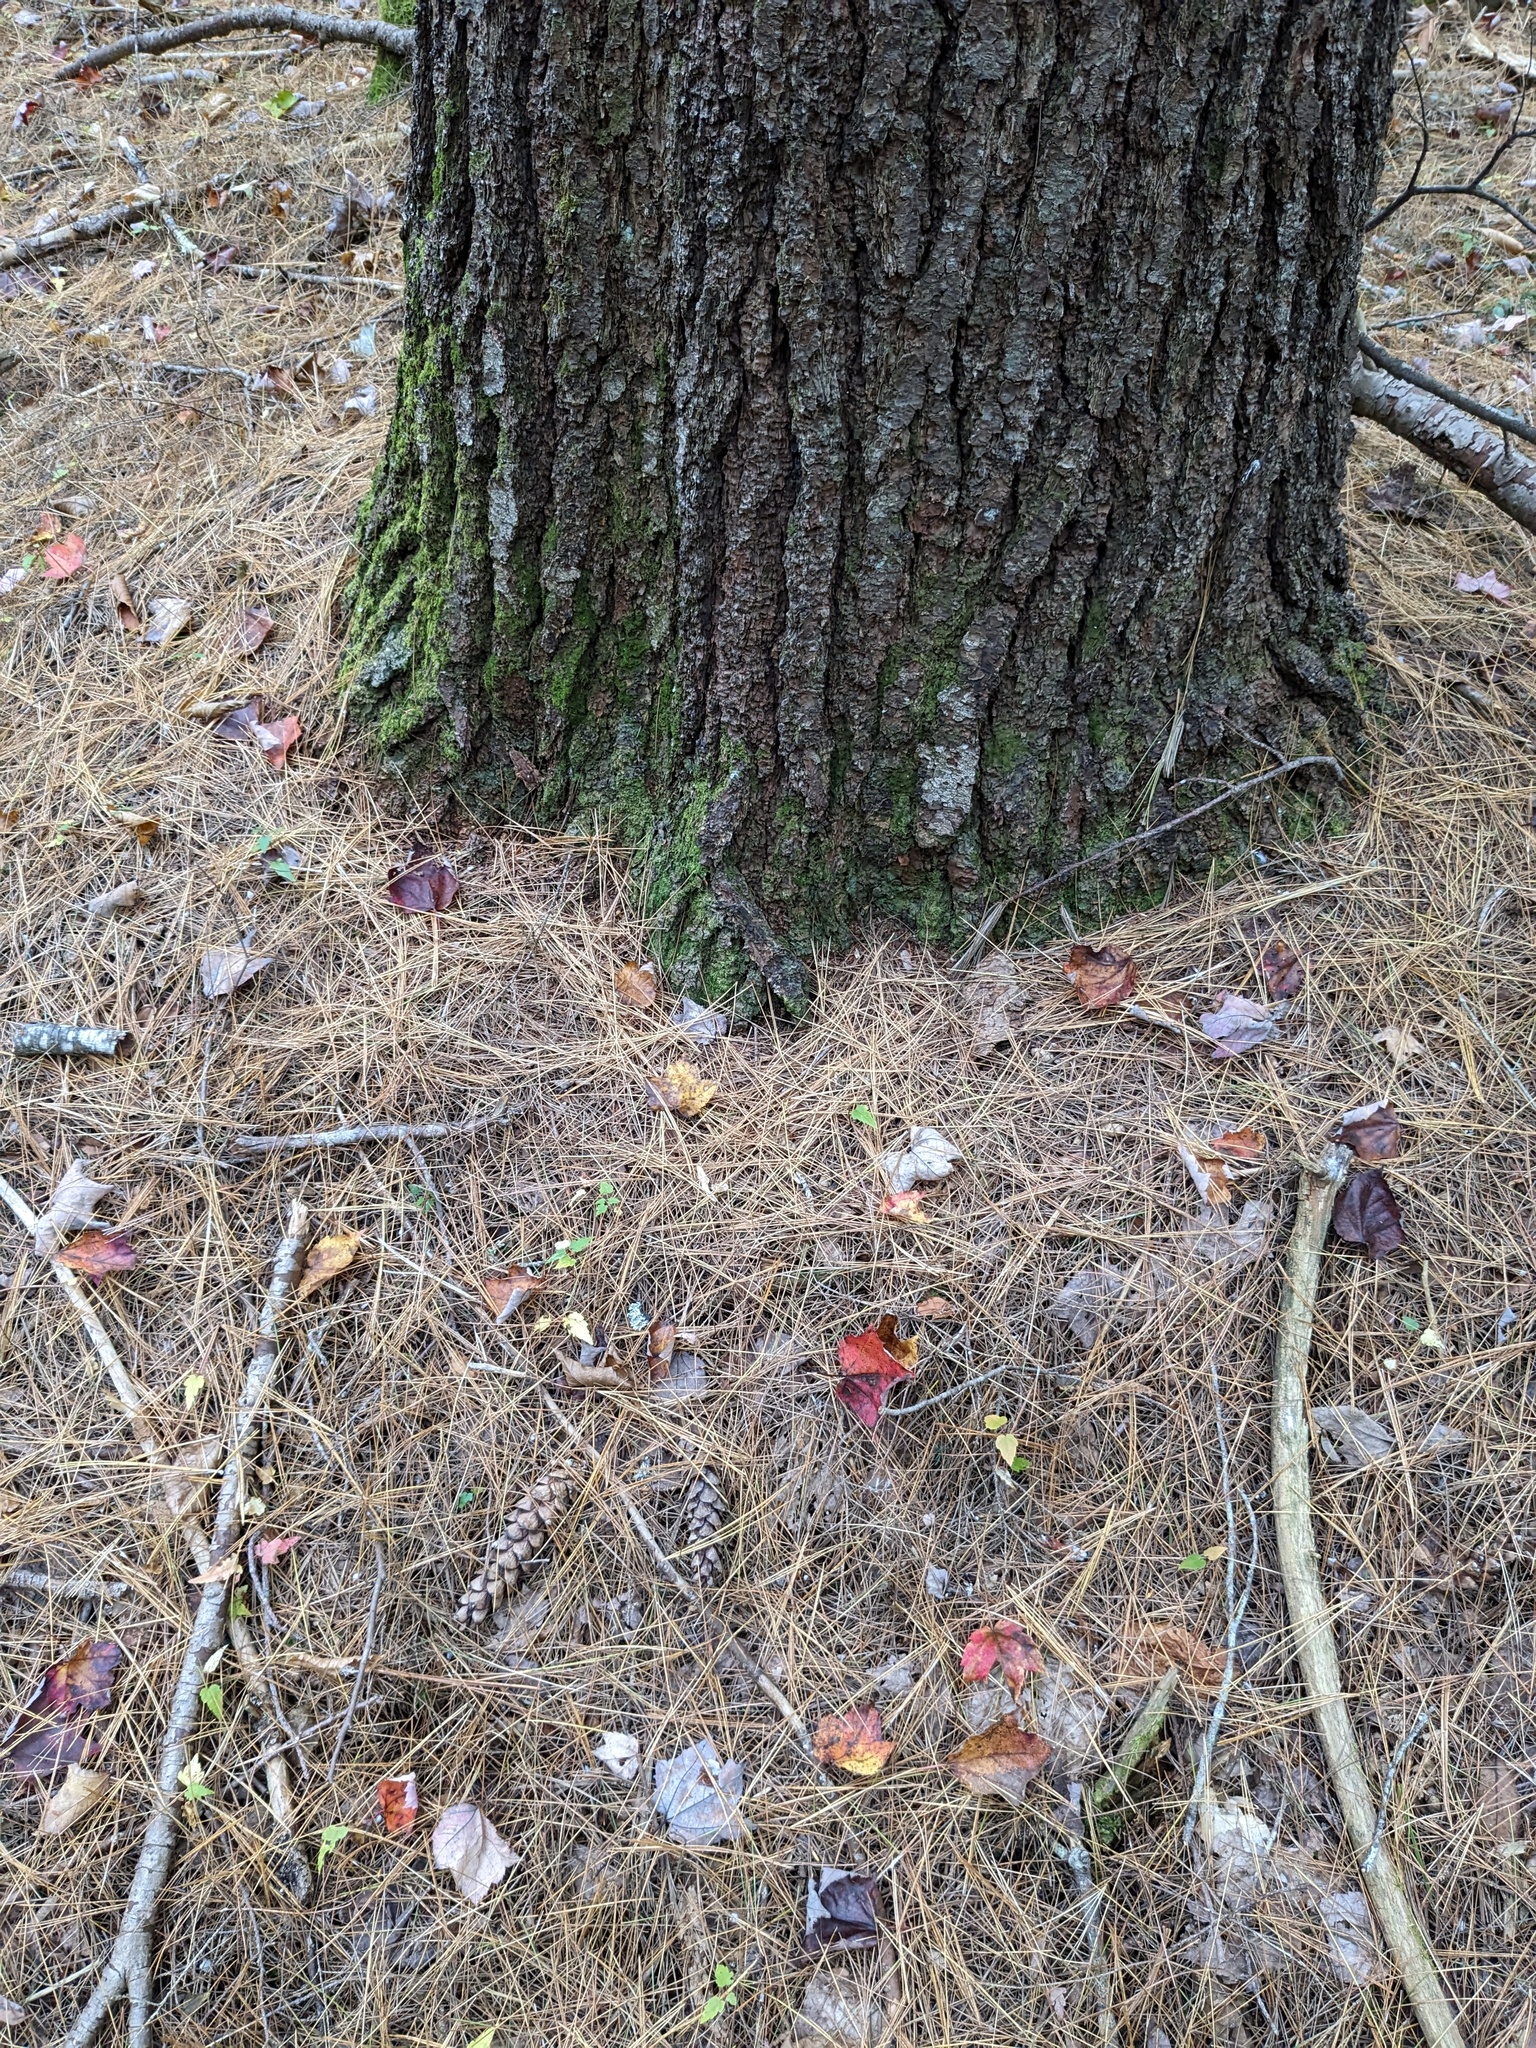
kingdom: Plantae
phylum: Tracheophyta
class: Pinopsida
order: Pinales
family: Pinaceae
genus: Pinus
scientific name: Pinus strobus
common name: Weymouth pine
